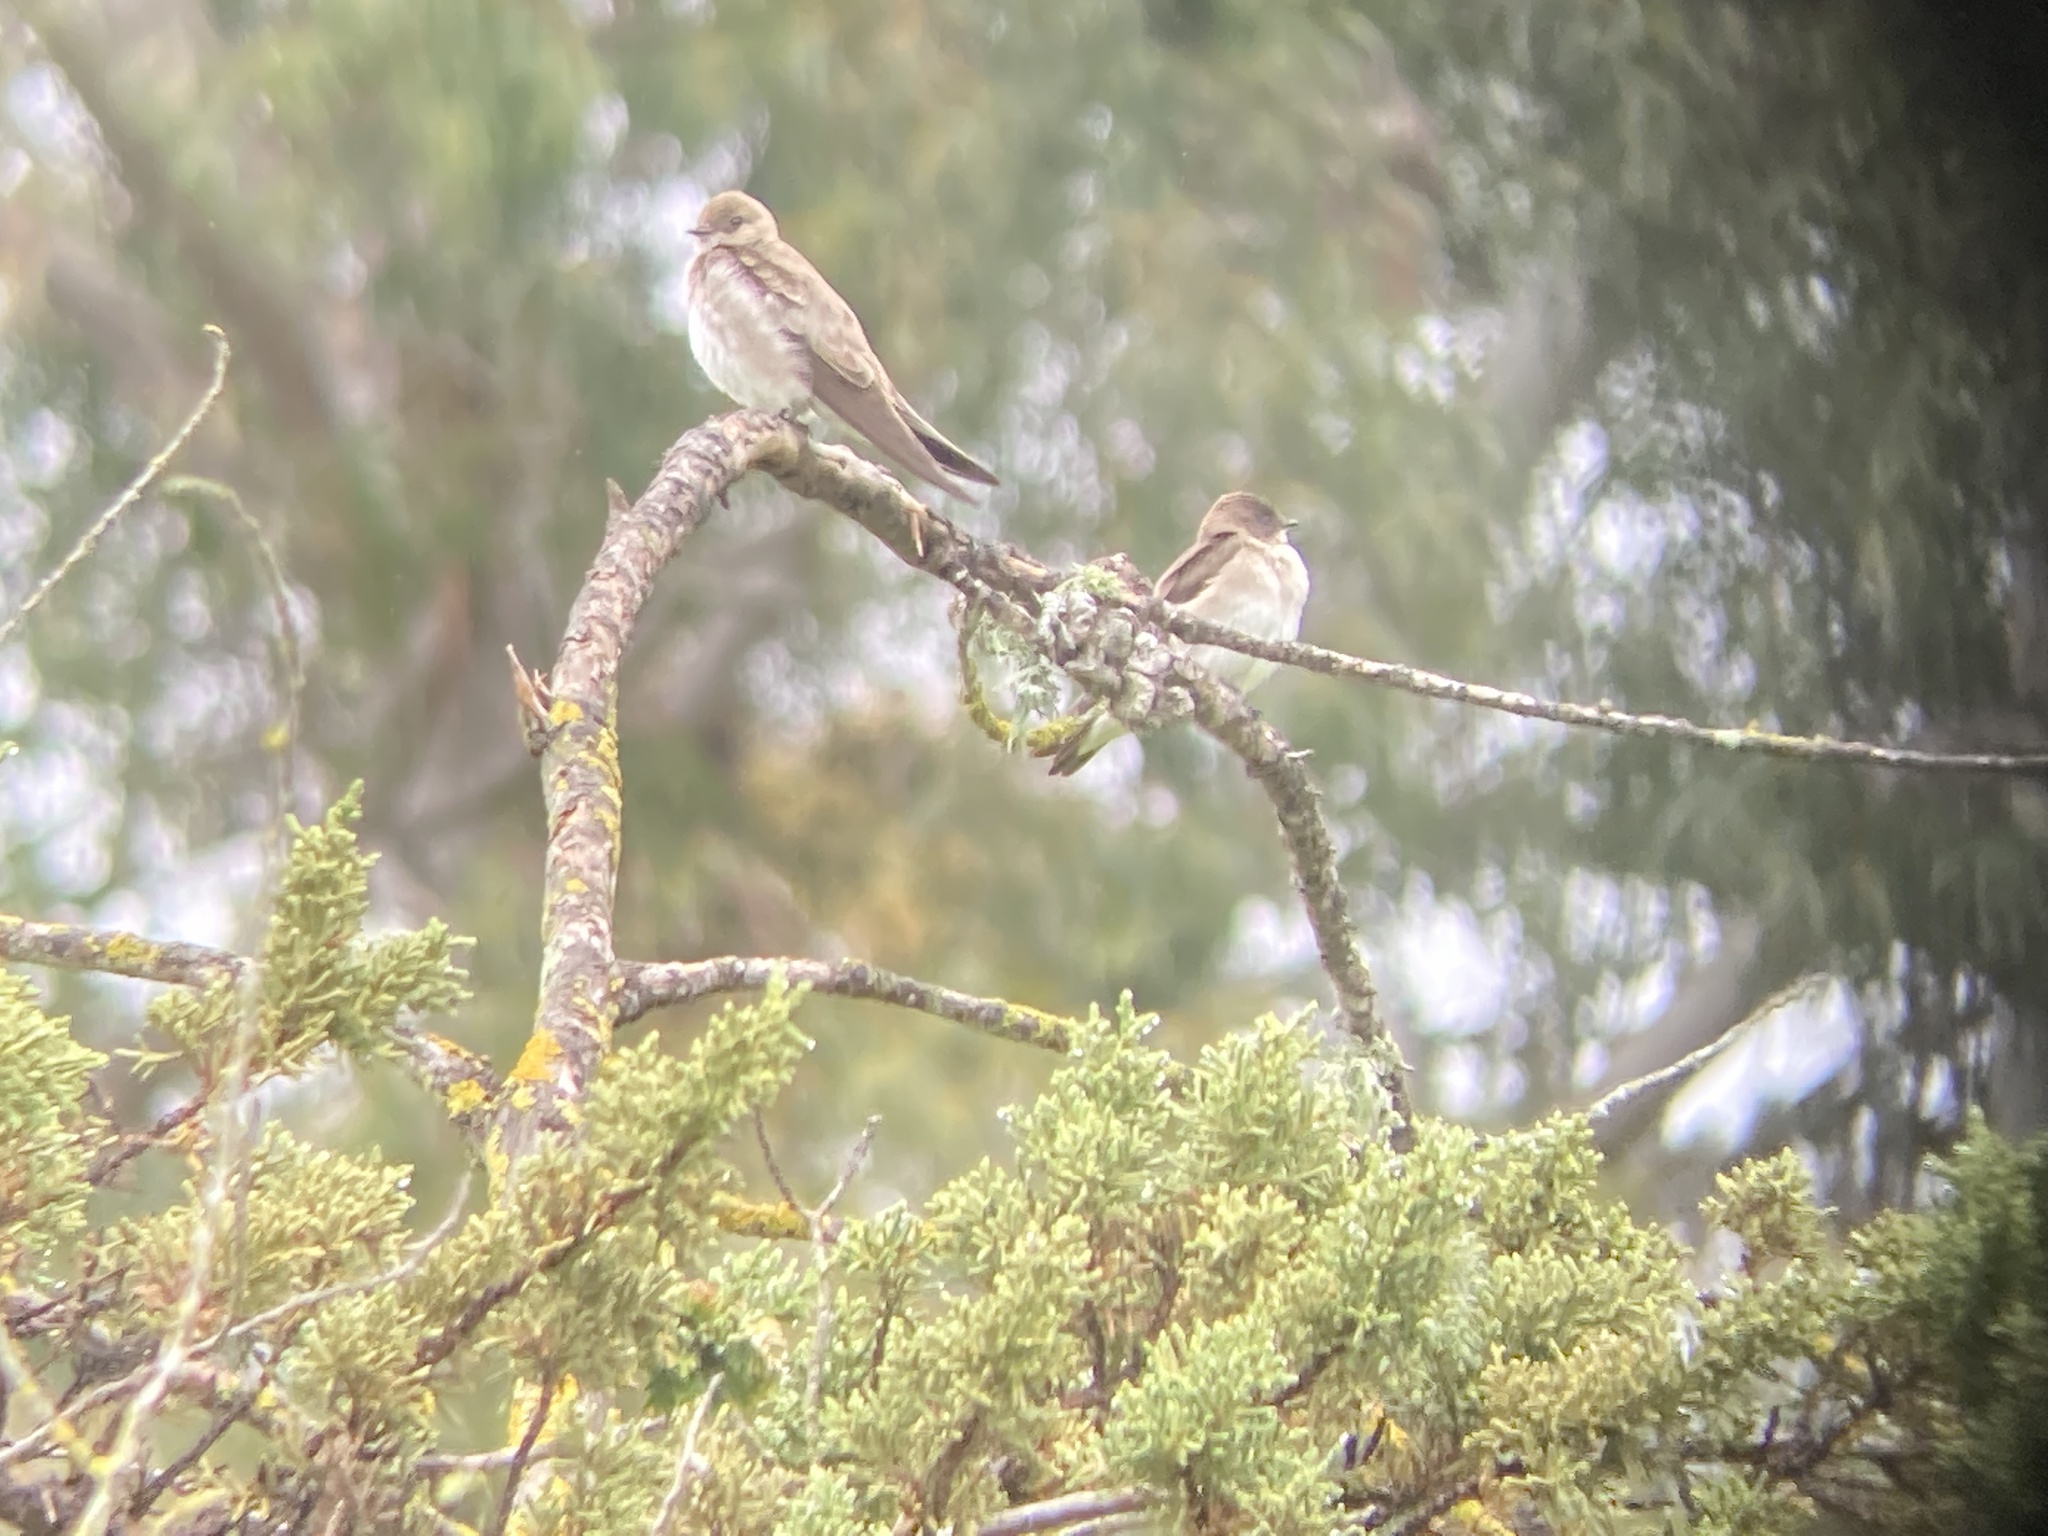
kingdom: Animalia
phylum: Chordata
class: Aves
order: Passeriformes
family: Hirundinidae
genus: Stelgidopteryx
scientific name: Stelgidopteryx serripennis
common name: Northern rough-winged swallow
